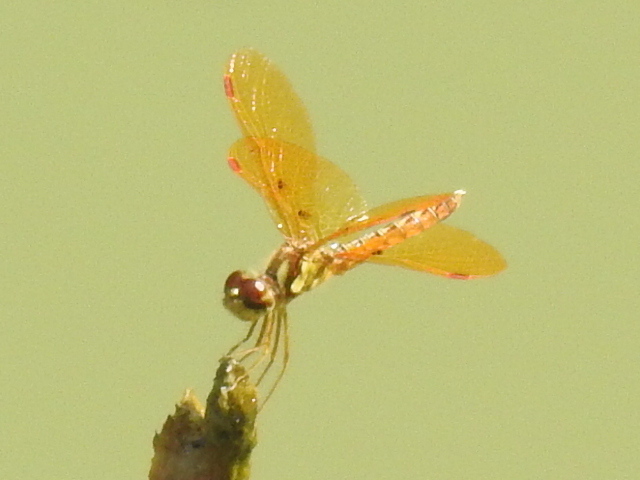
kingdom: Animalia
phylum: Arthropoda
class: Insecta
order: Odonata
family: Libellulidae
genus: Perithemis
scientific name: Perithemis tenera
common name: Eastern amberwing
